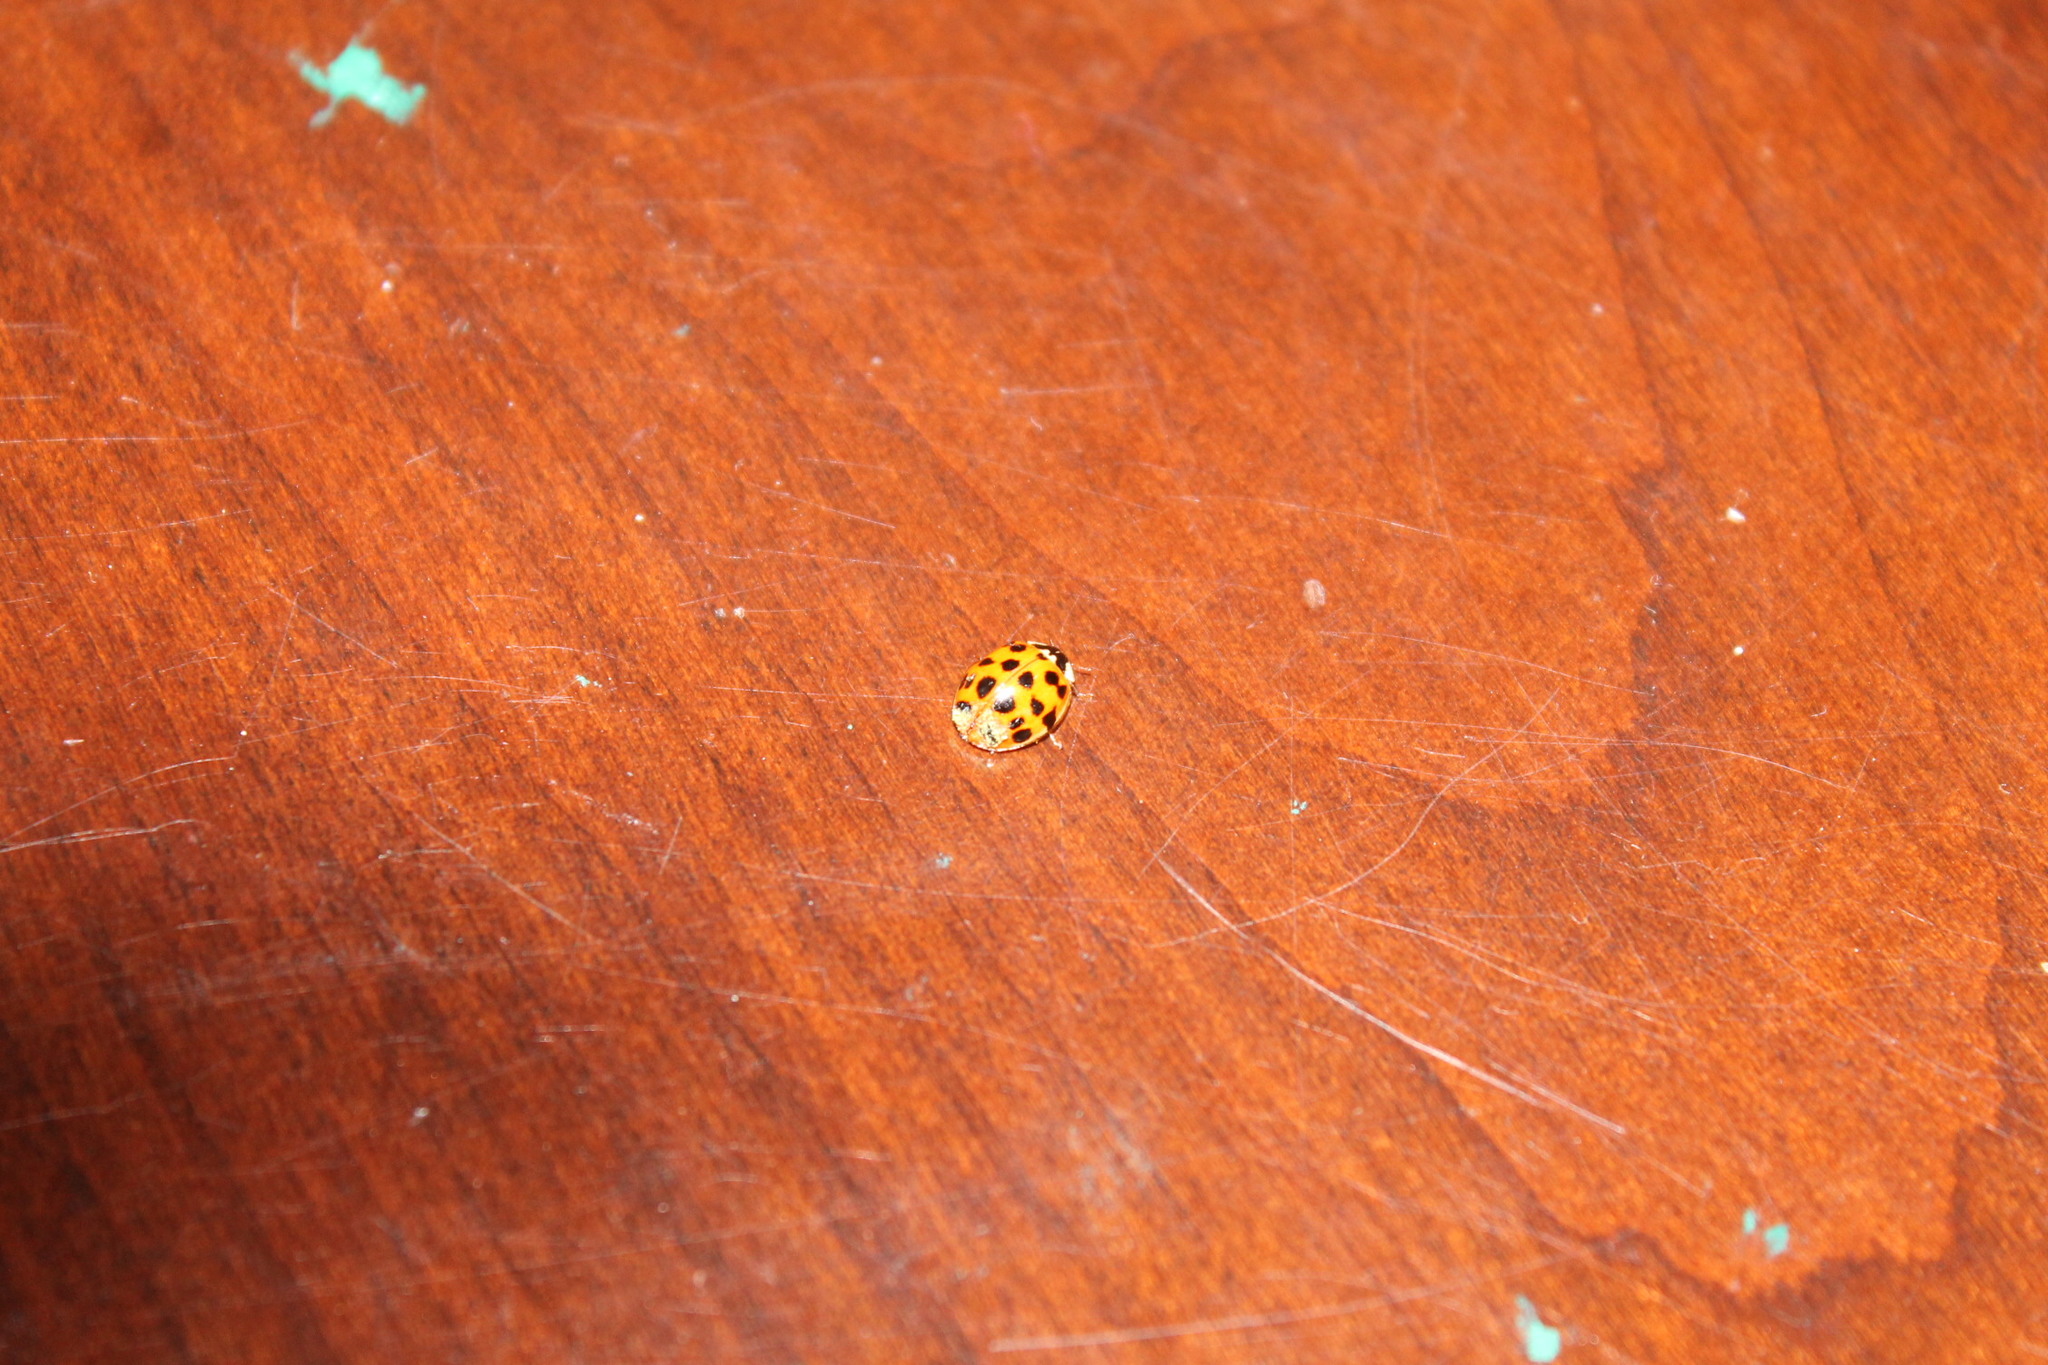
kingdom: Animalia
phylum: Arthropoda
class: Insecta
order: Coleoptera
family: Coccinellidae
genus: Harmonia
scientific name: Harmonia axyridis
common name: Harlequin ladybird
